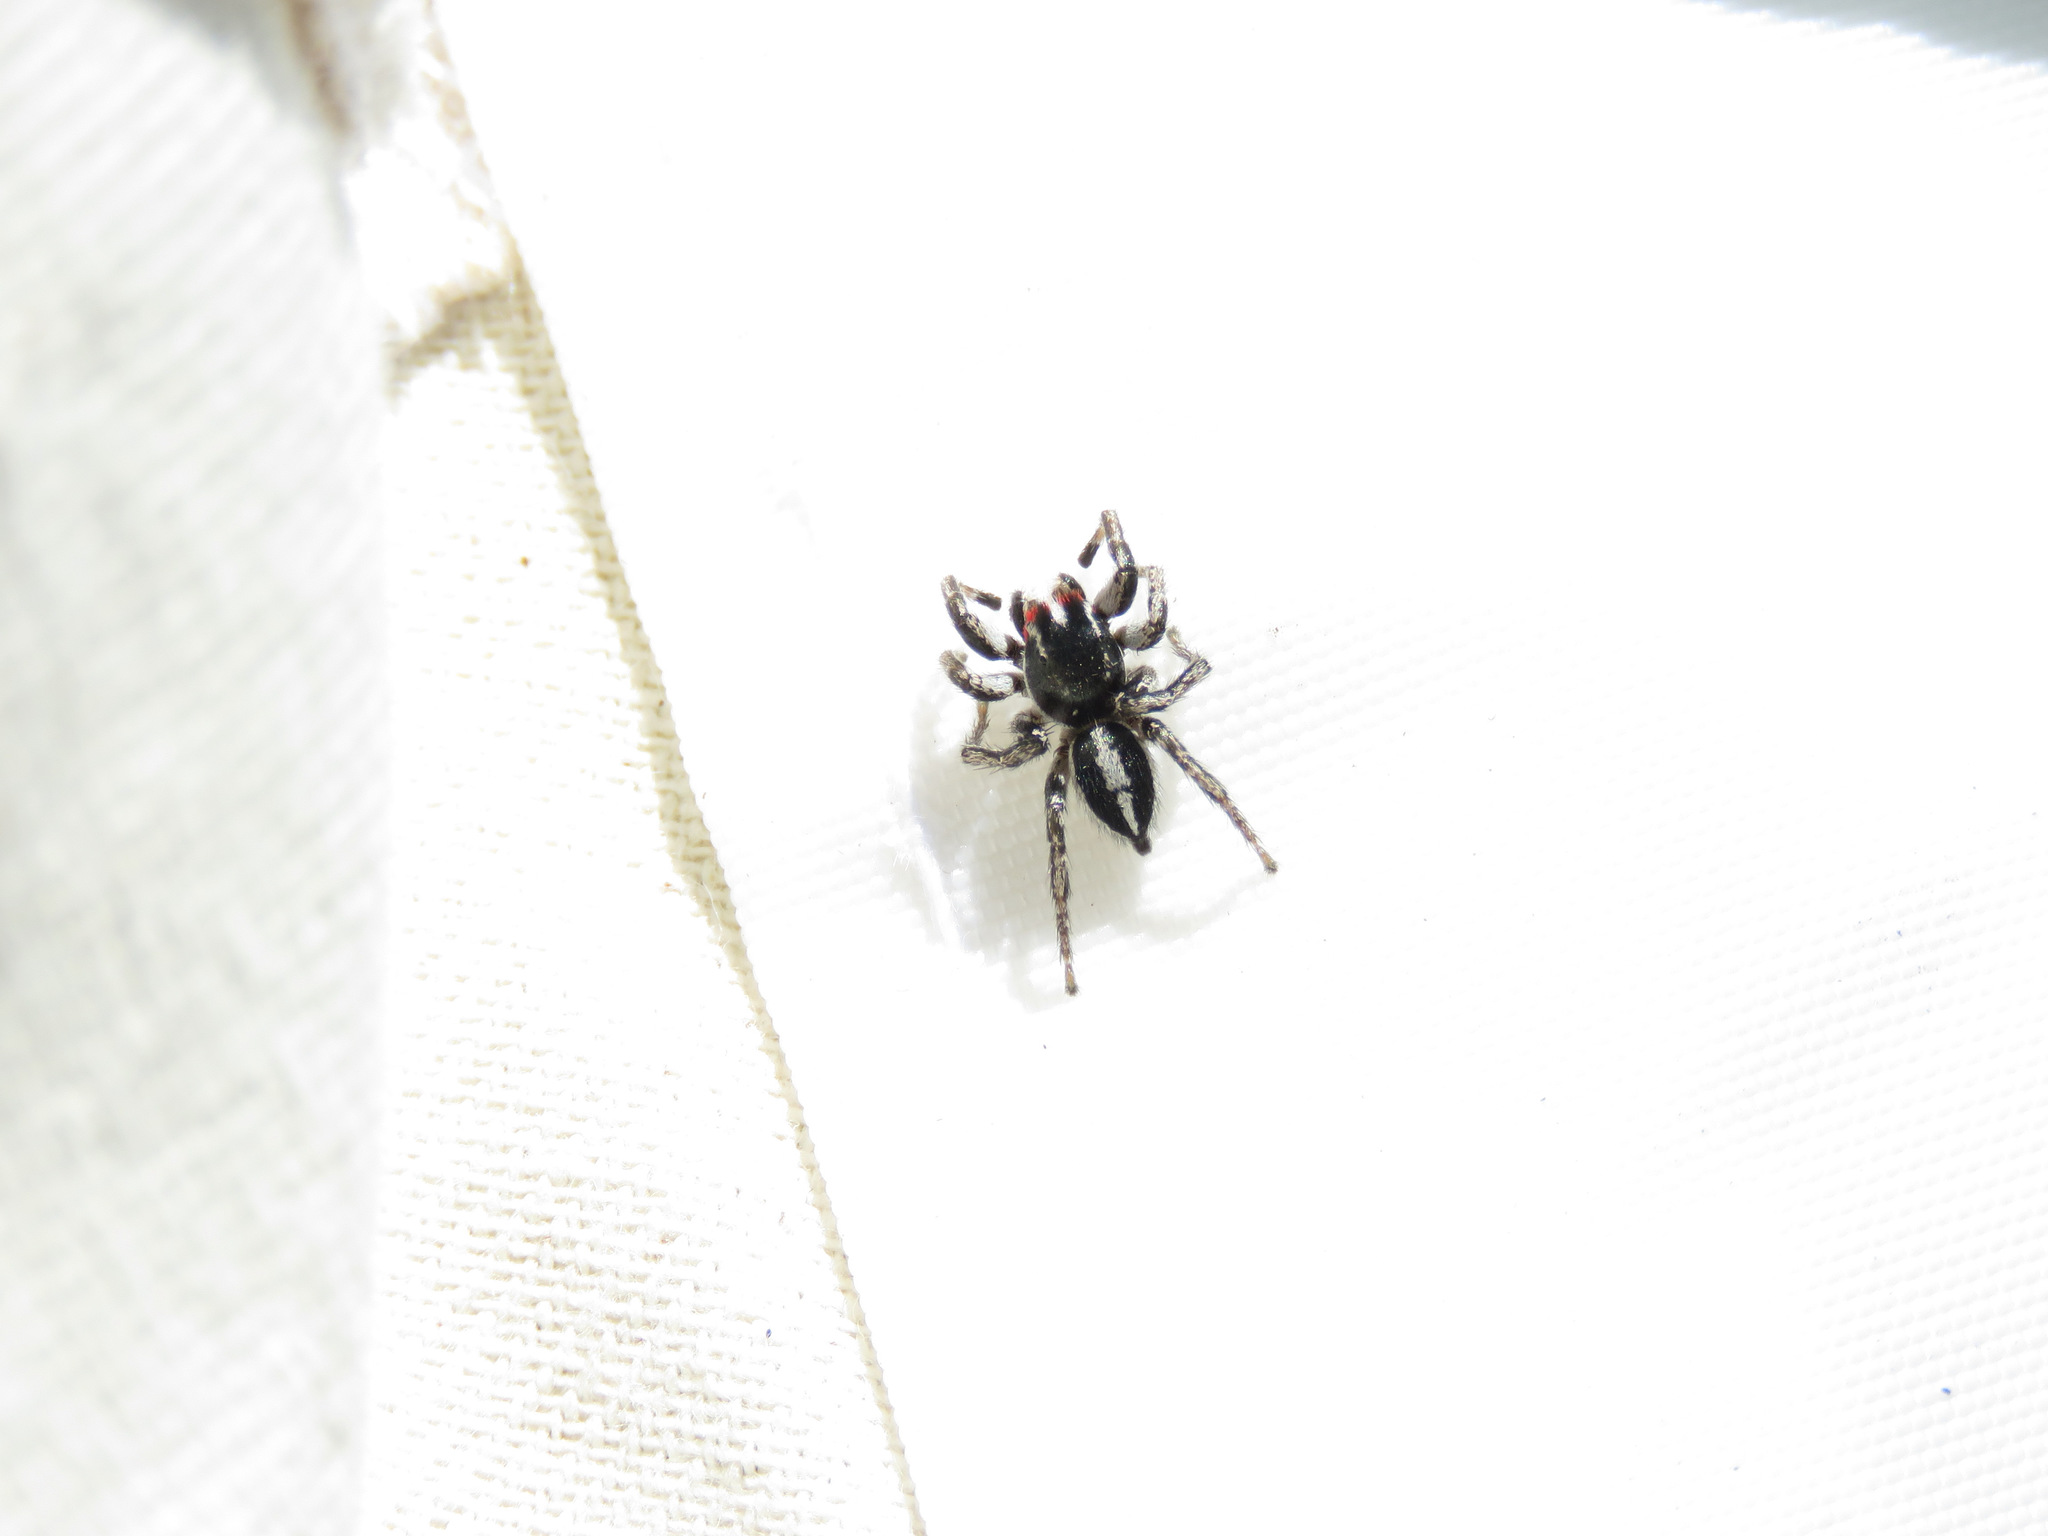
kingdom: Animalia
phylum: Arthropoda
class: Arachnida
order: Araneae
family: Salticidae
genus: Habronattus
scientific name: Habronattus sansoni
